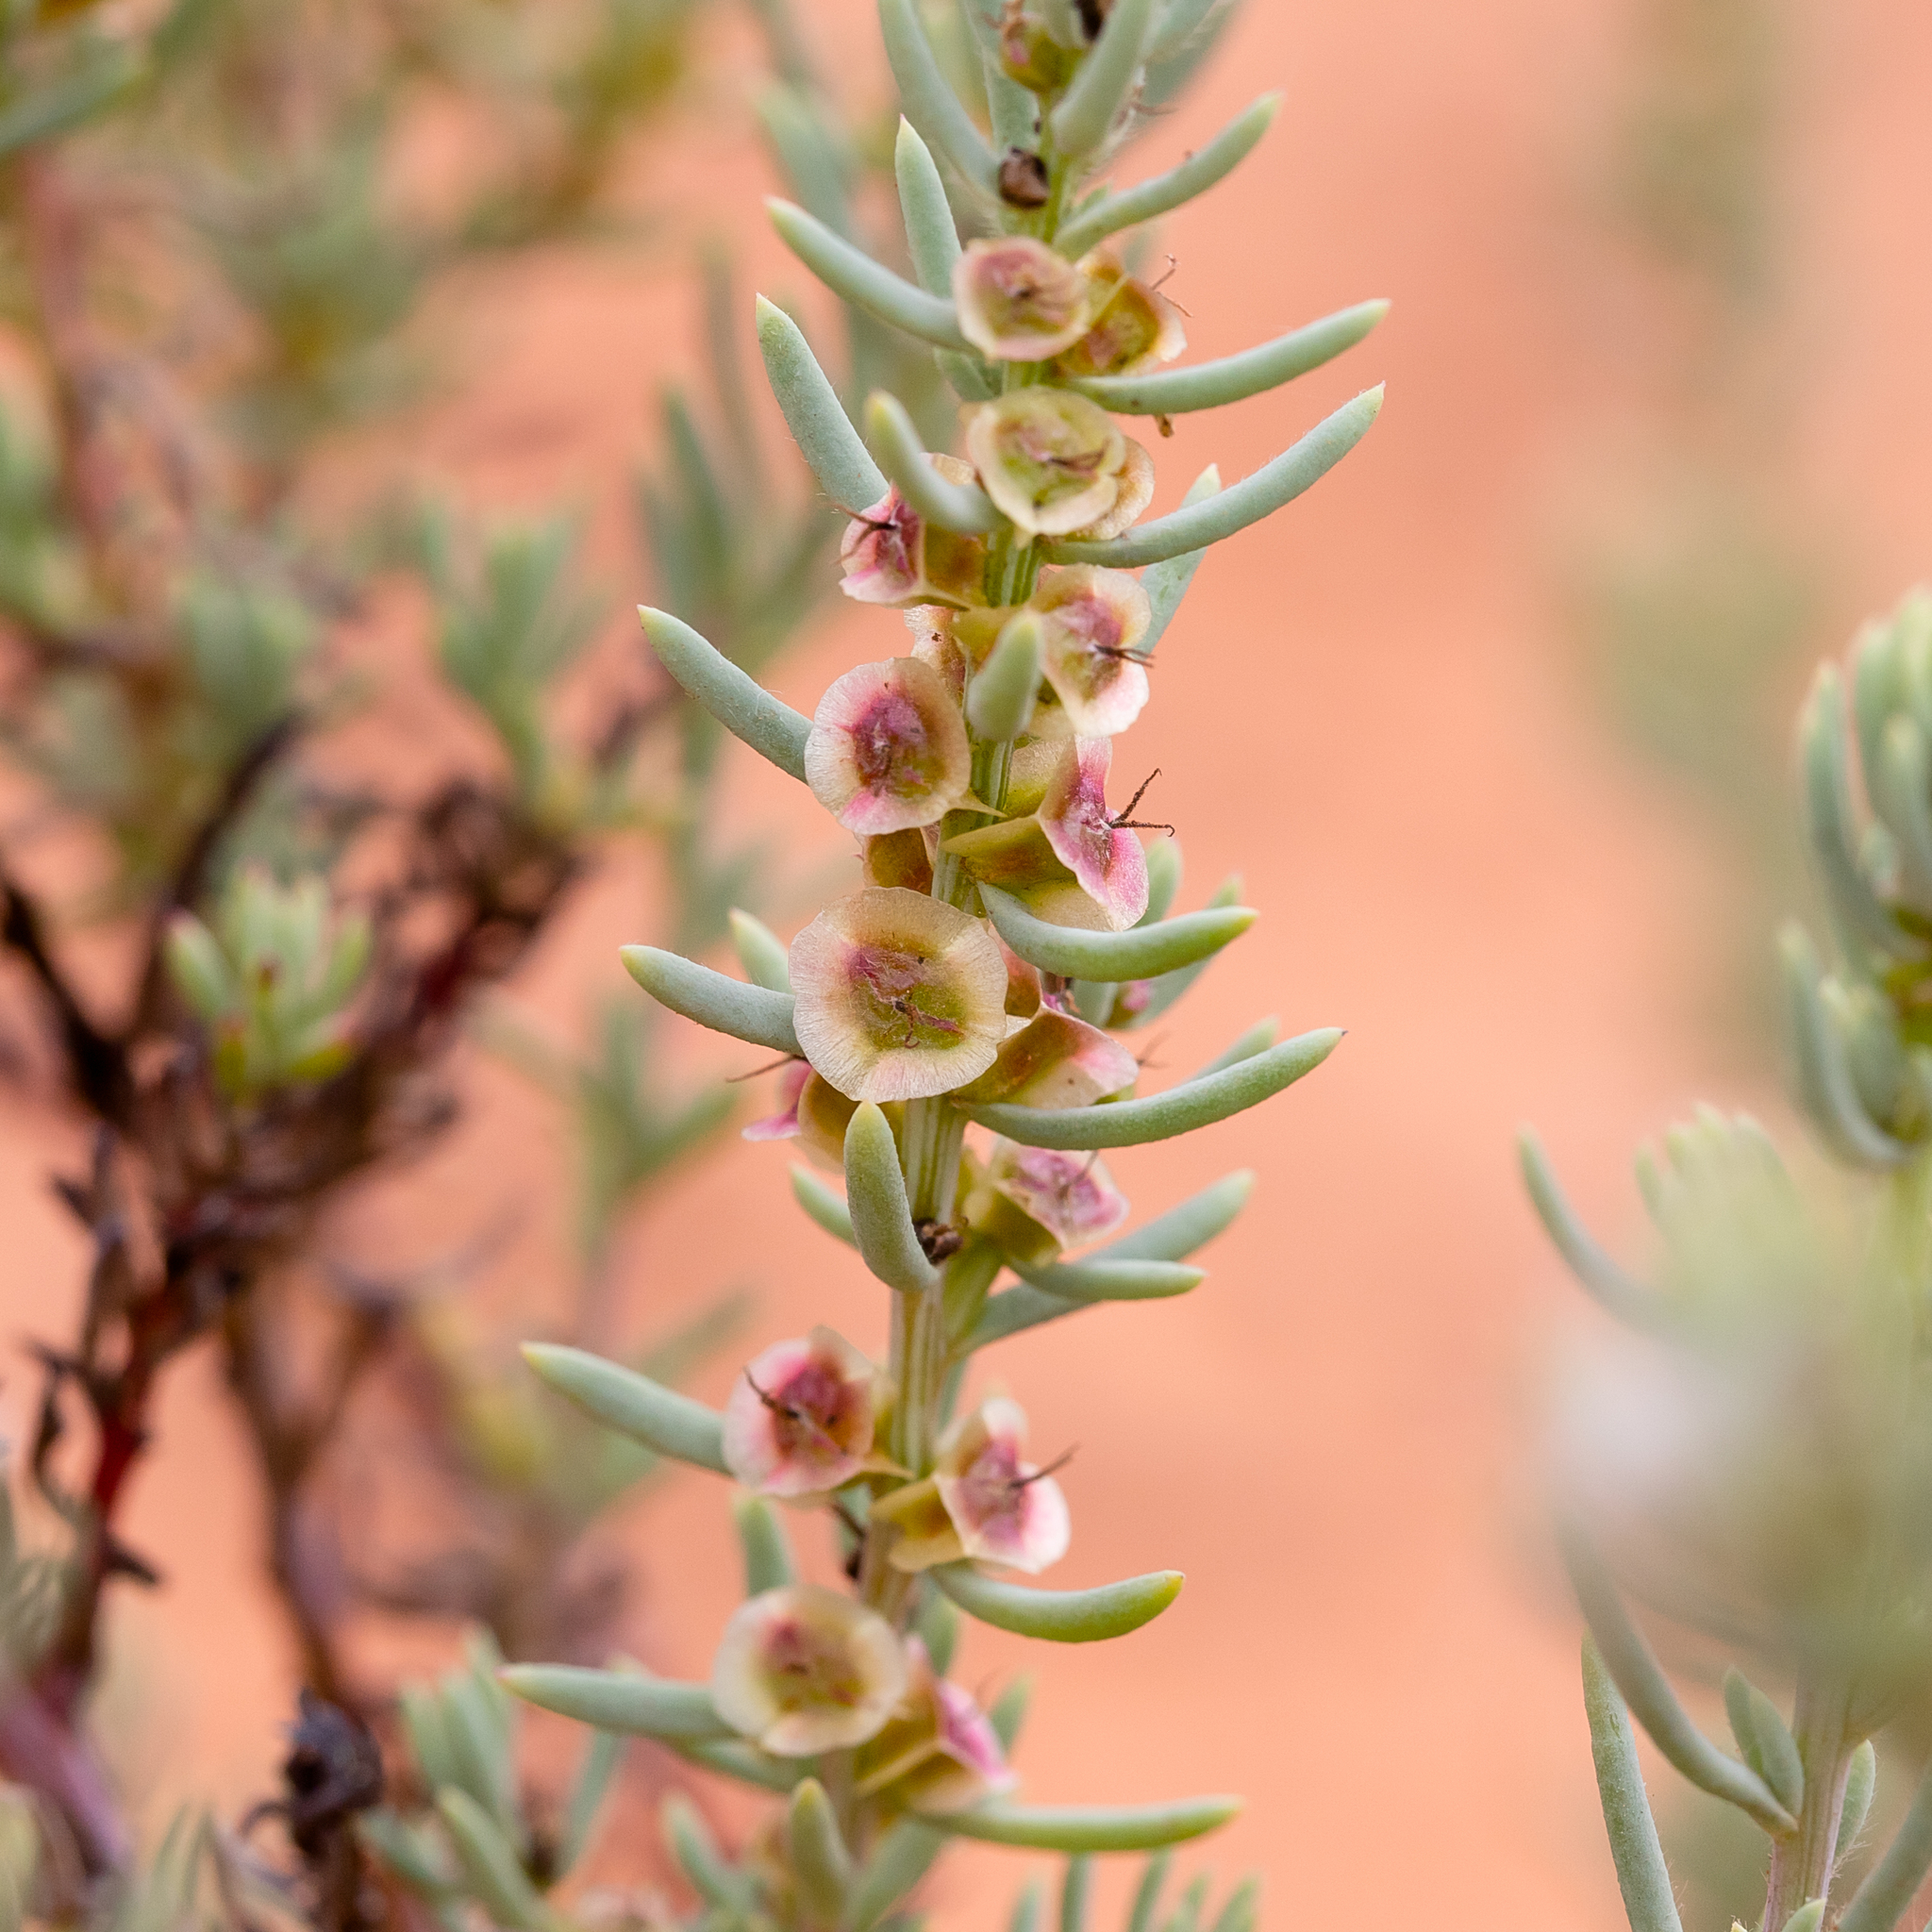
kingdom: Plantae
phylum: Tracheophyta
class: Magnoliopsida
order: Caryophyllales
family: Amaranthaceae
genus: Maireana
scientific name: Maireana triptera
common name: Three-wing bluebush
